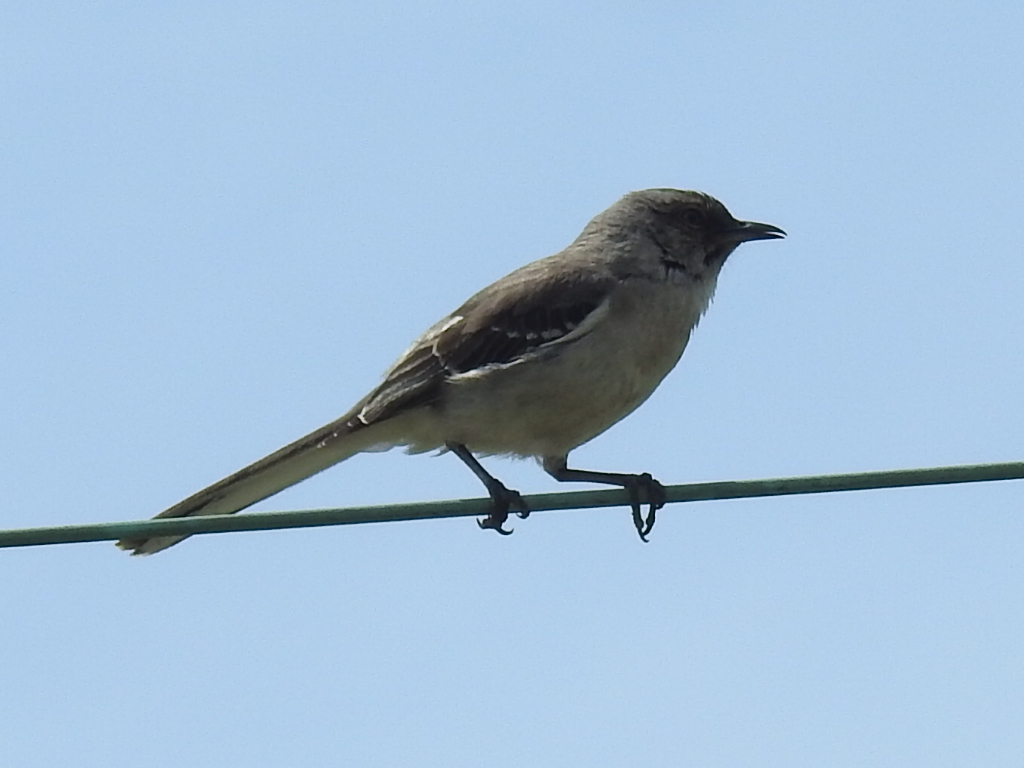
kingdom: Animalia
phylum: Chordata
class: Aves
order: Passeriformes
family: Mimidae
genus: Mimus
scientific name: Mimus polyglottos
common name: Northern mockingbird
